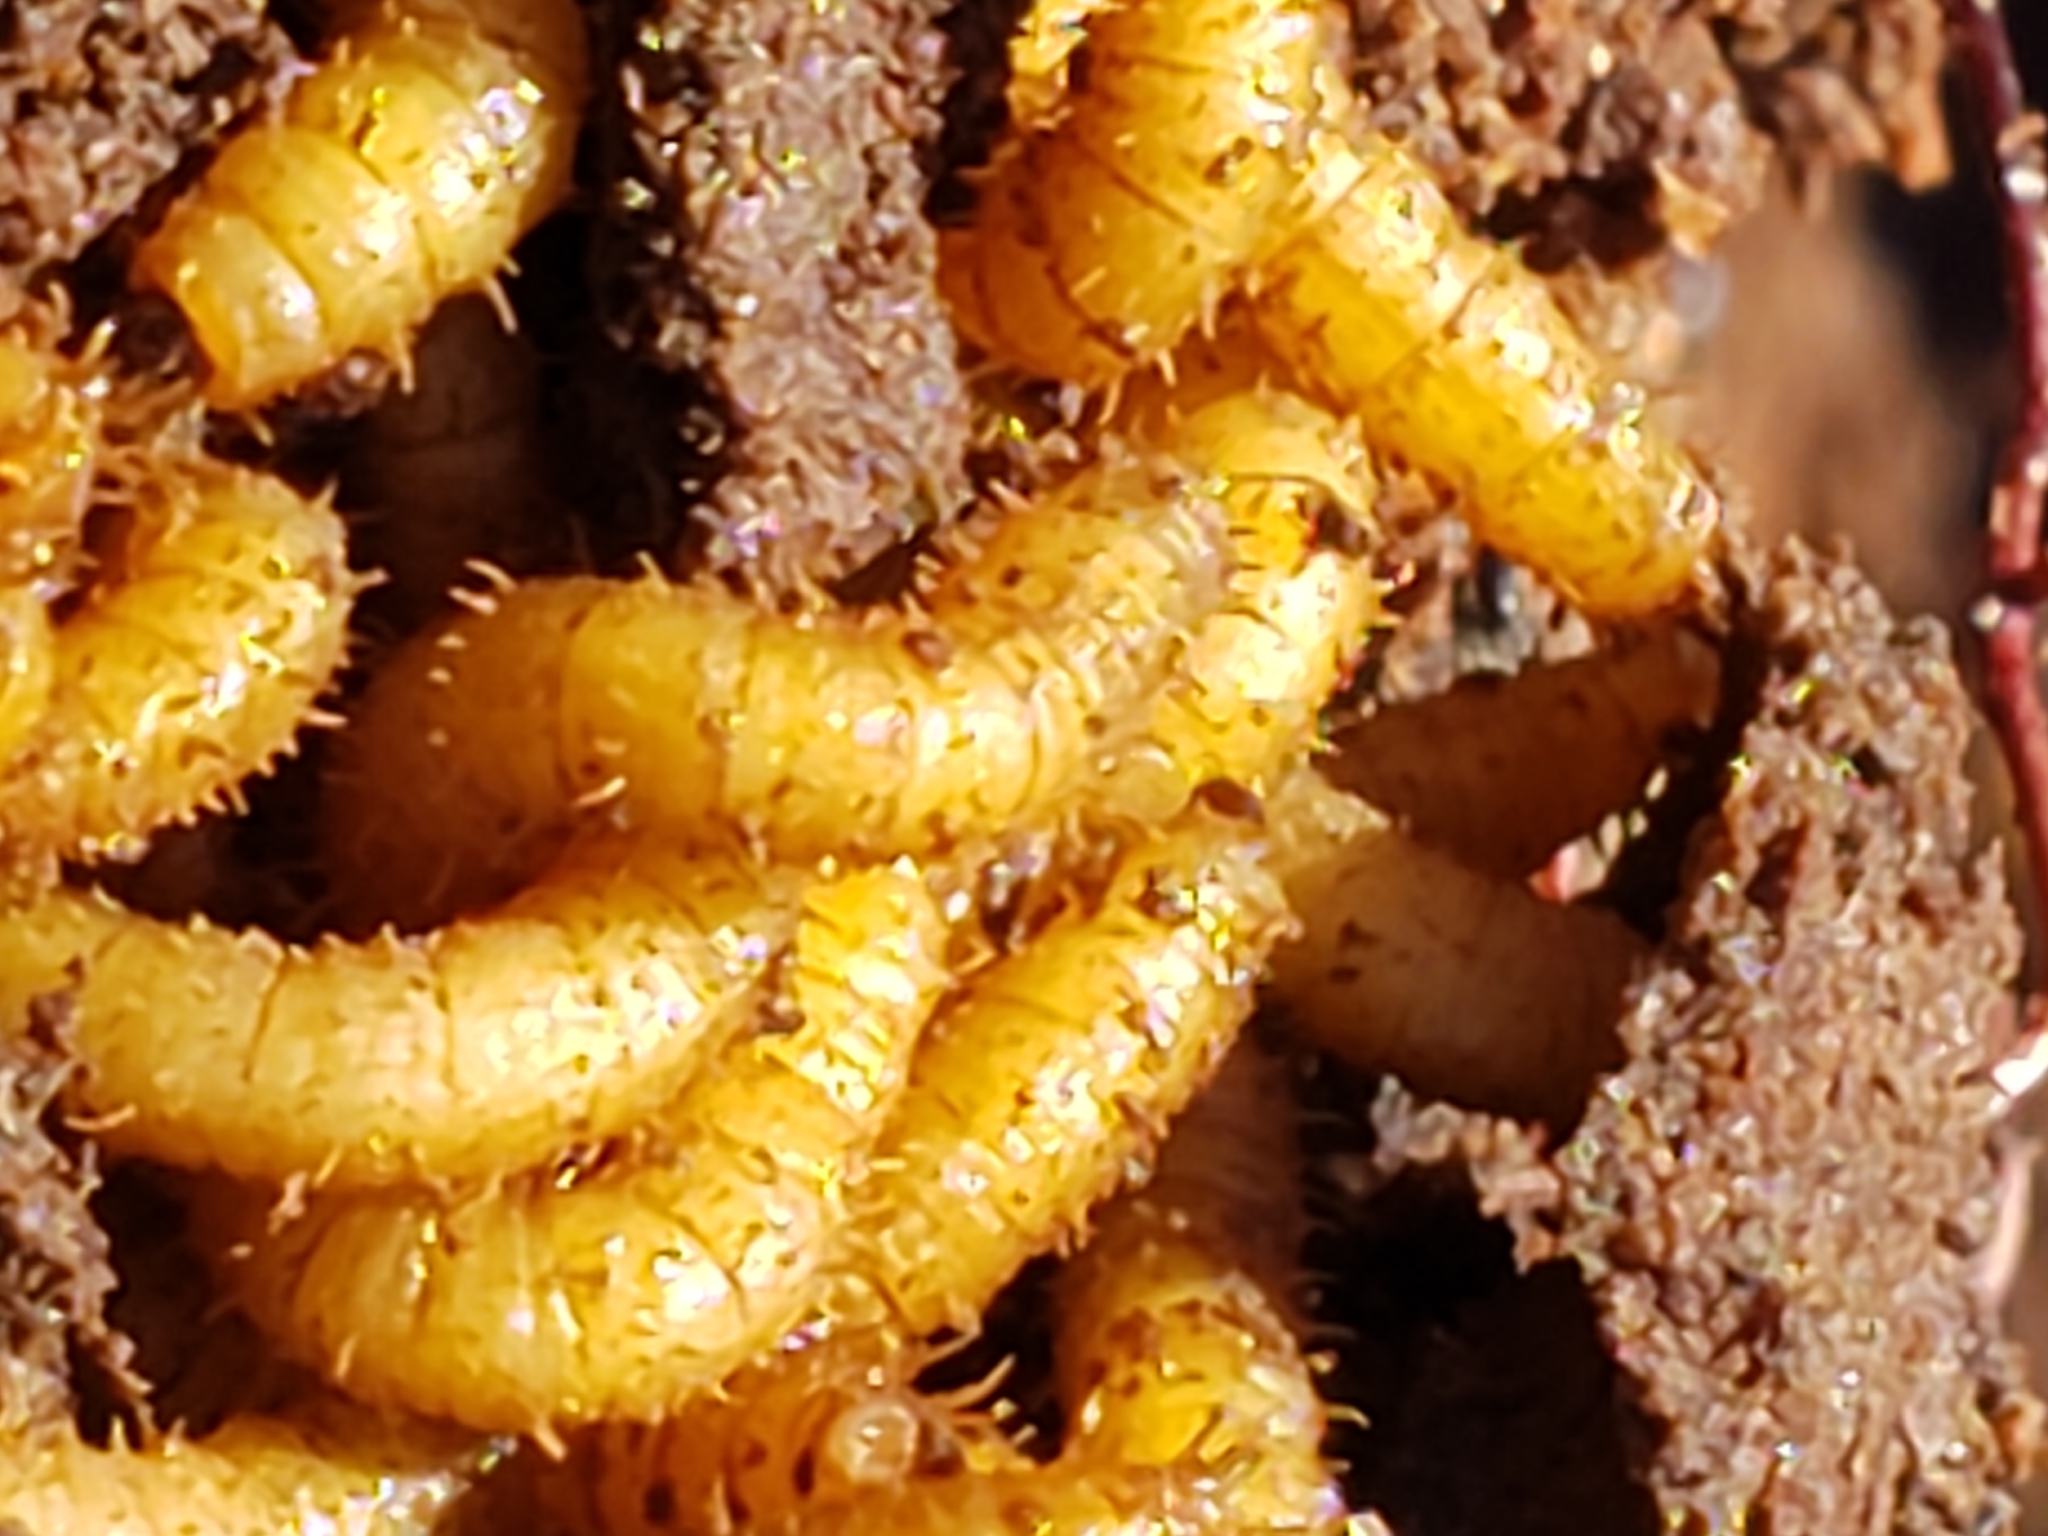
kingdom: Animalia
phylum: Arthropoda
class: Insecta
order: Diptera
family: Bibionidae
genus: Bibio
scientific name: Bibio
